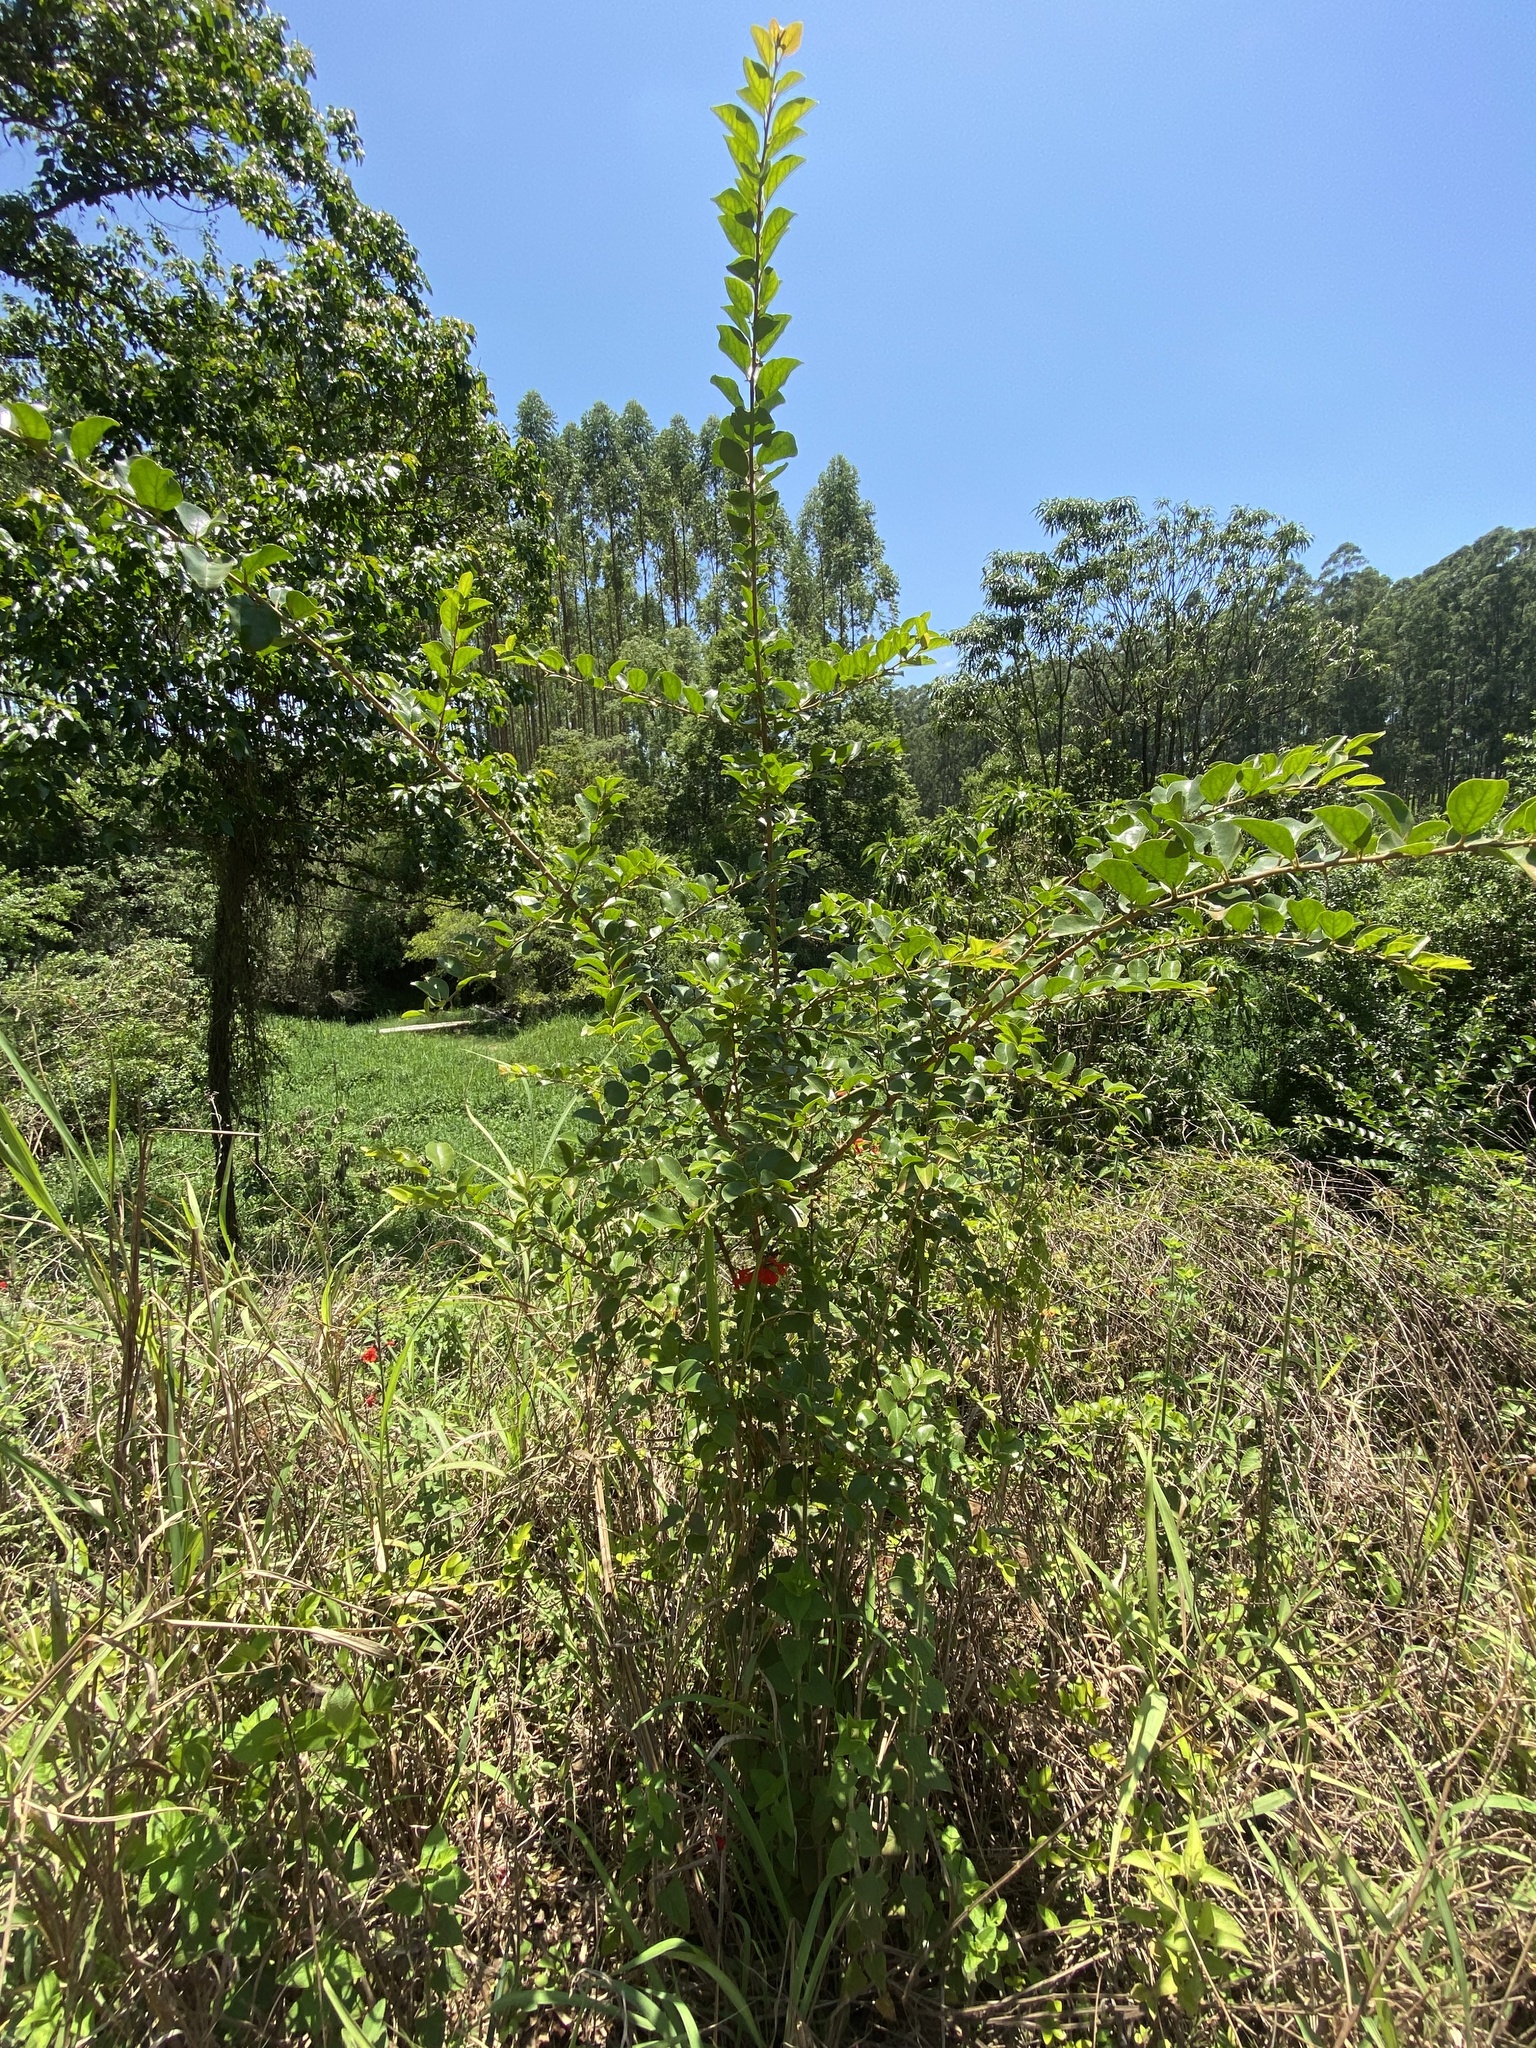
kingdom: Plantae
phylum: Tracheophyta
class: Magnoliopsida
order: Malpighiales
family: Salicaceae
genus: Dovyalis
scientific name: Dovyalis caffra
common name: Kei-apple
